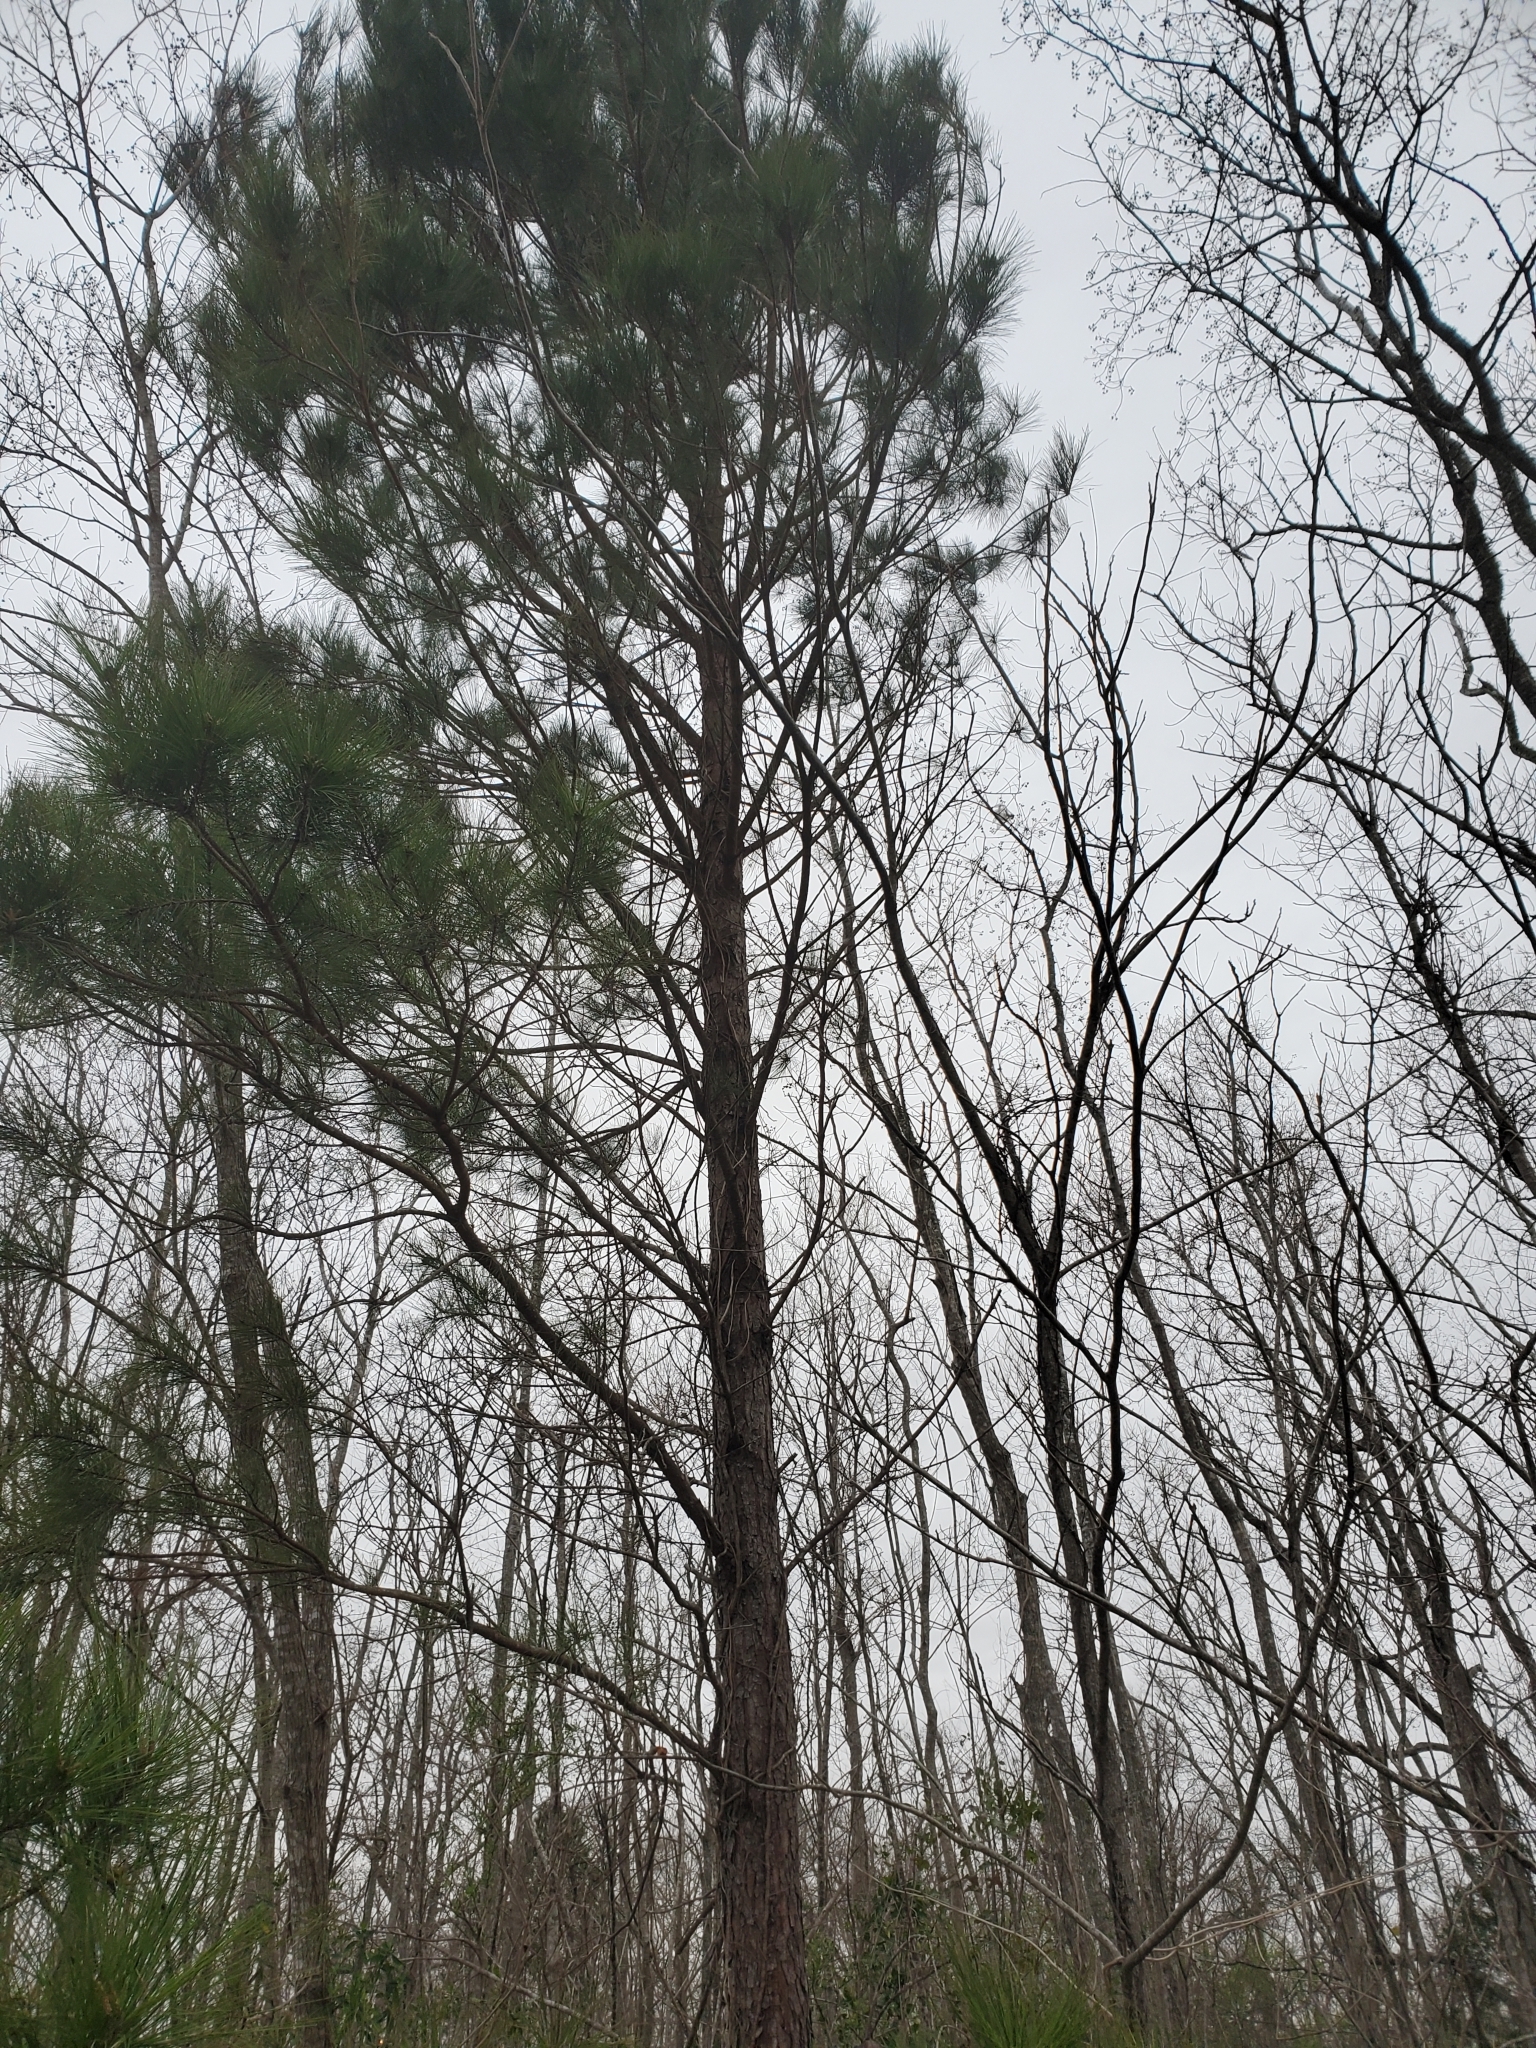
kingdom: Plantae
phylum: Tracheophyta
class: Pinopsida
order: Pinales
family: Pinaceae
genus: Pinus
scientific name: Pinus taeda
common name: Loblolly pine
